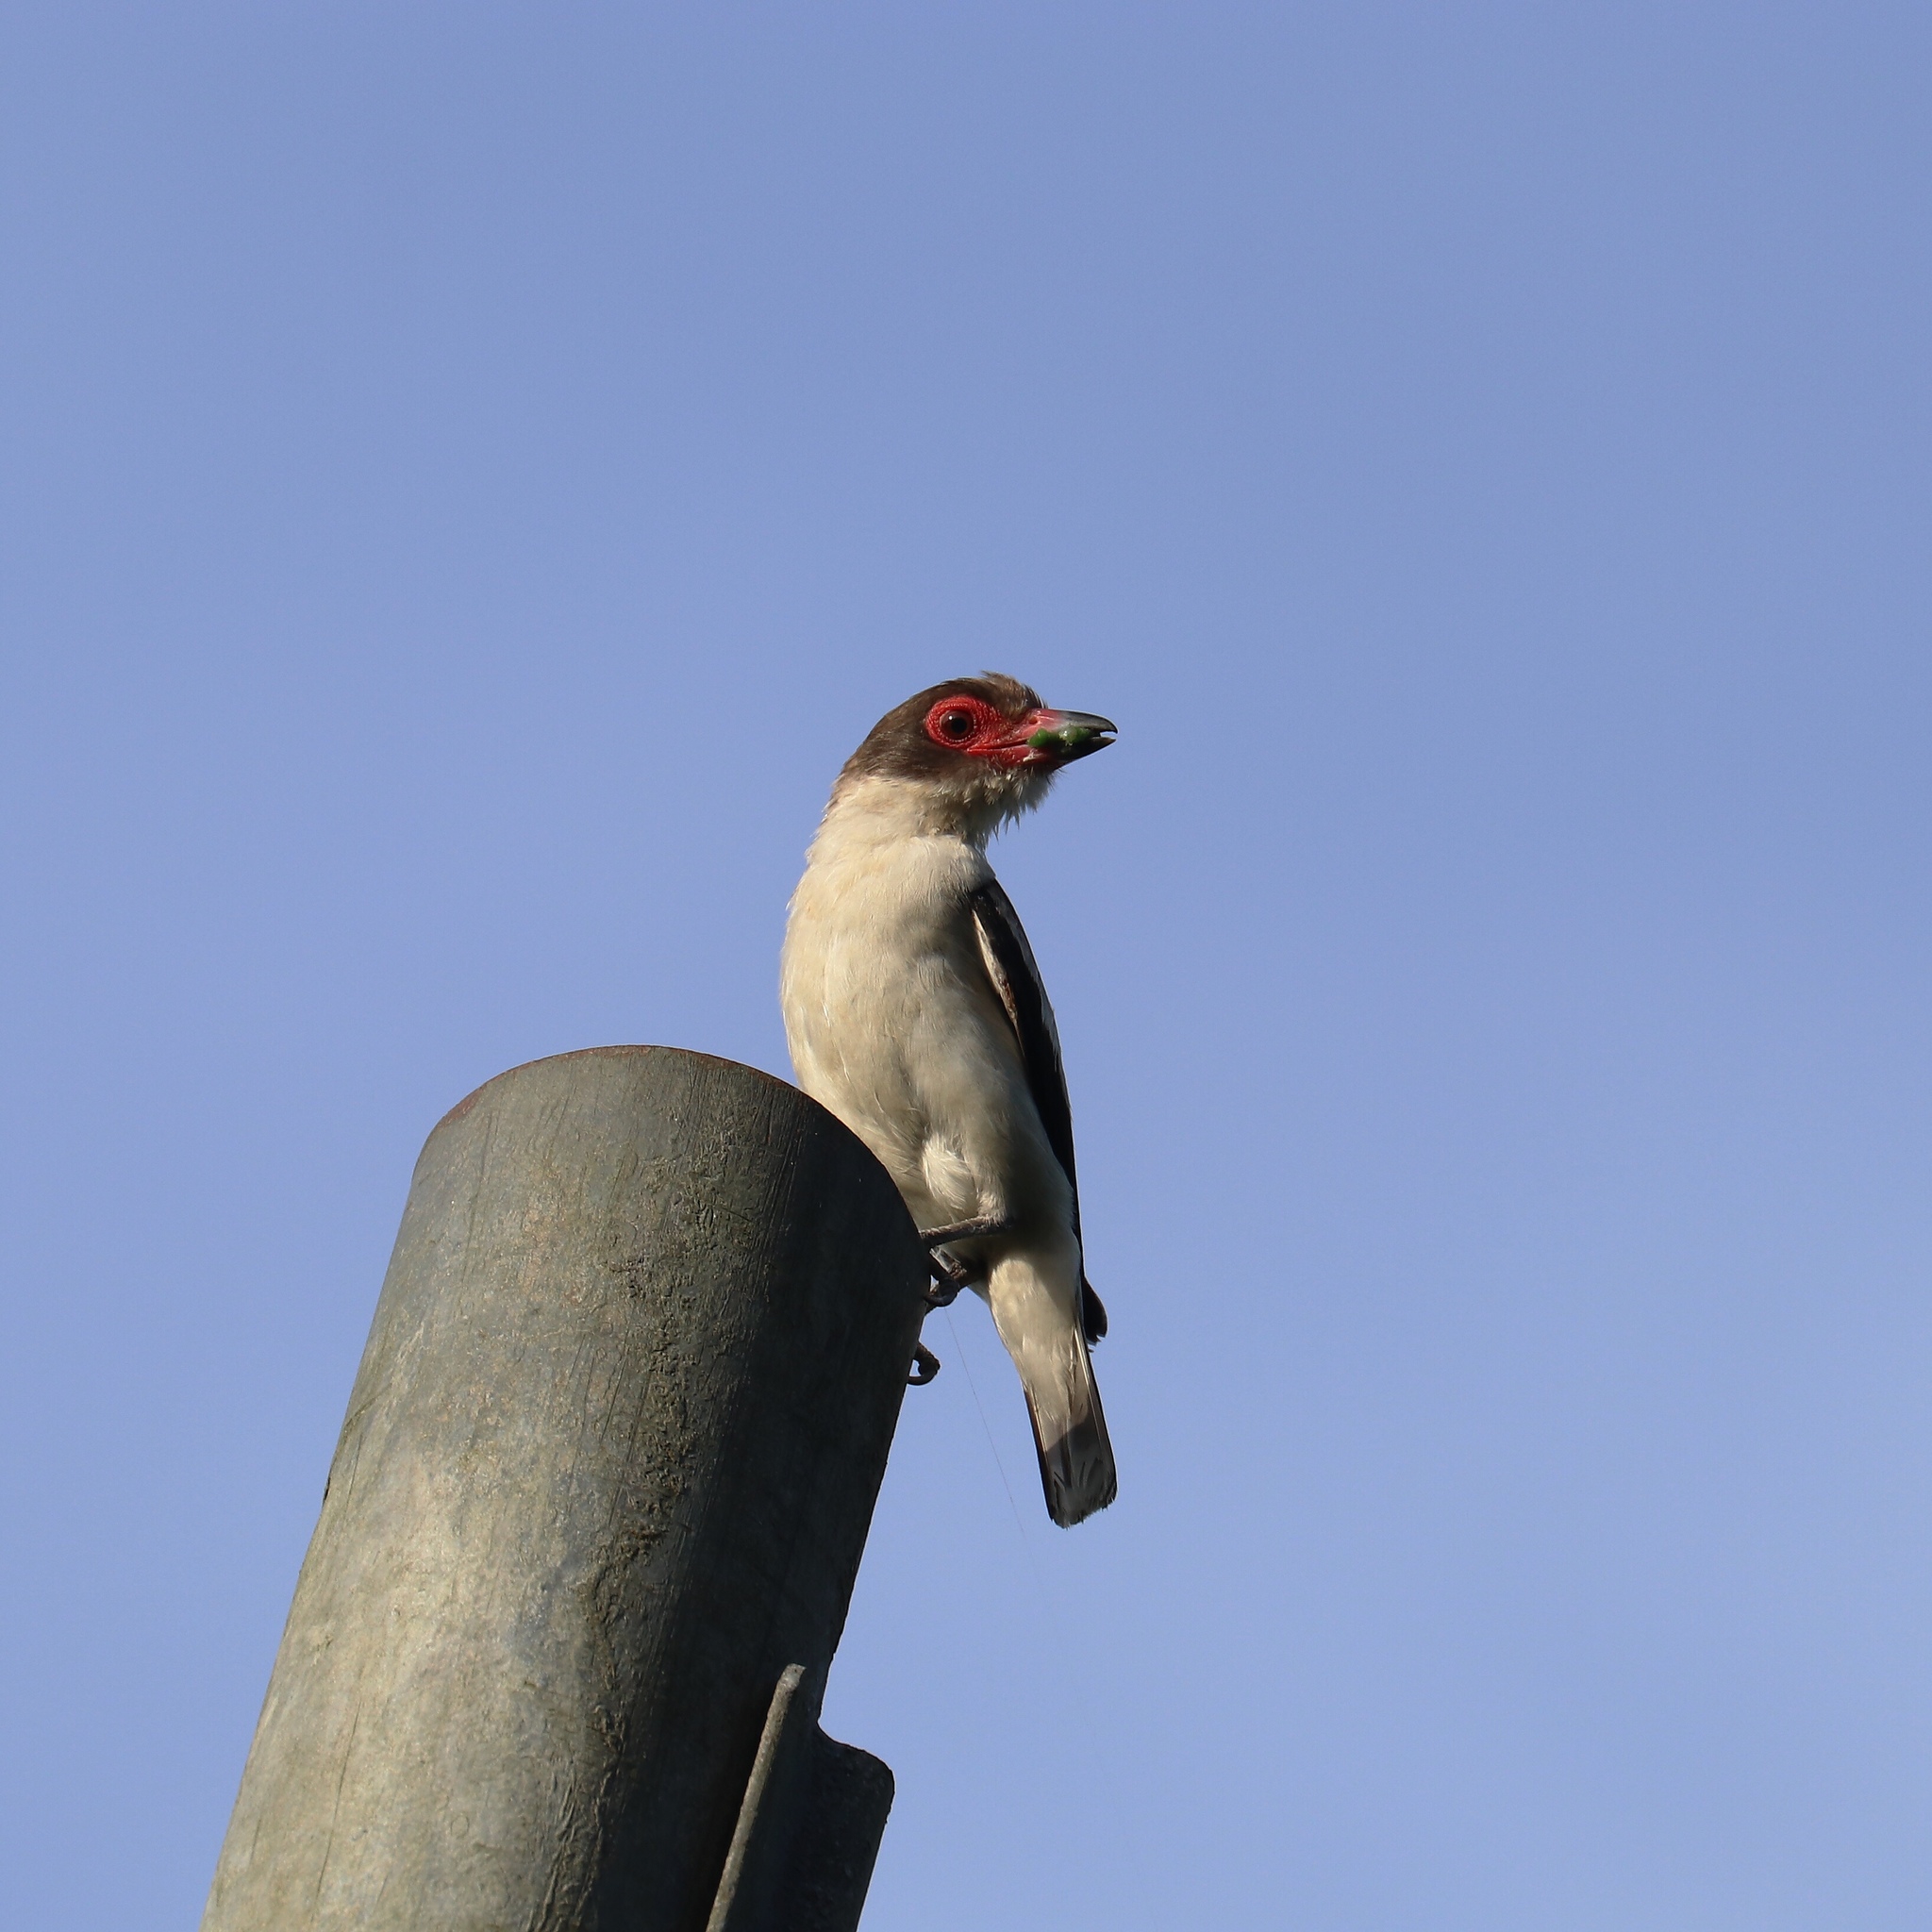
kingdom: Animalia
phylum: Chordata
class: Aves
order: Passeriformes
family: Cotingidae
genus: Tityra
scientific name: Tityra semifasciata
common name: Masked tityra
